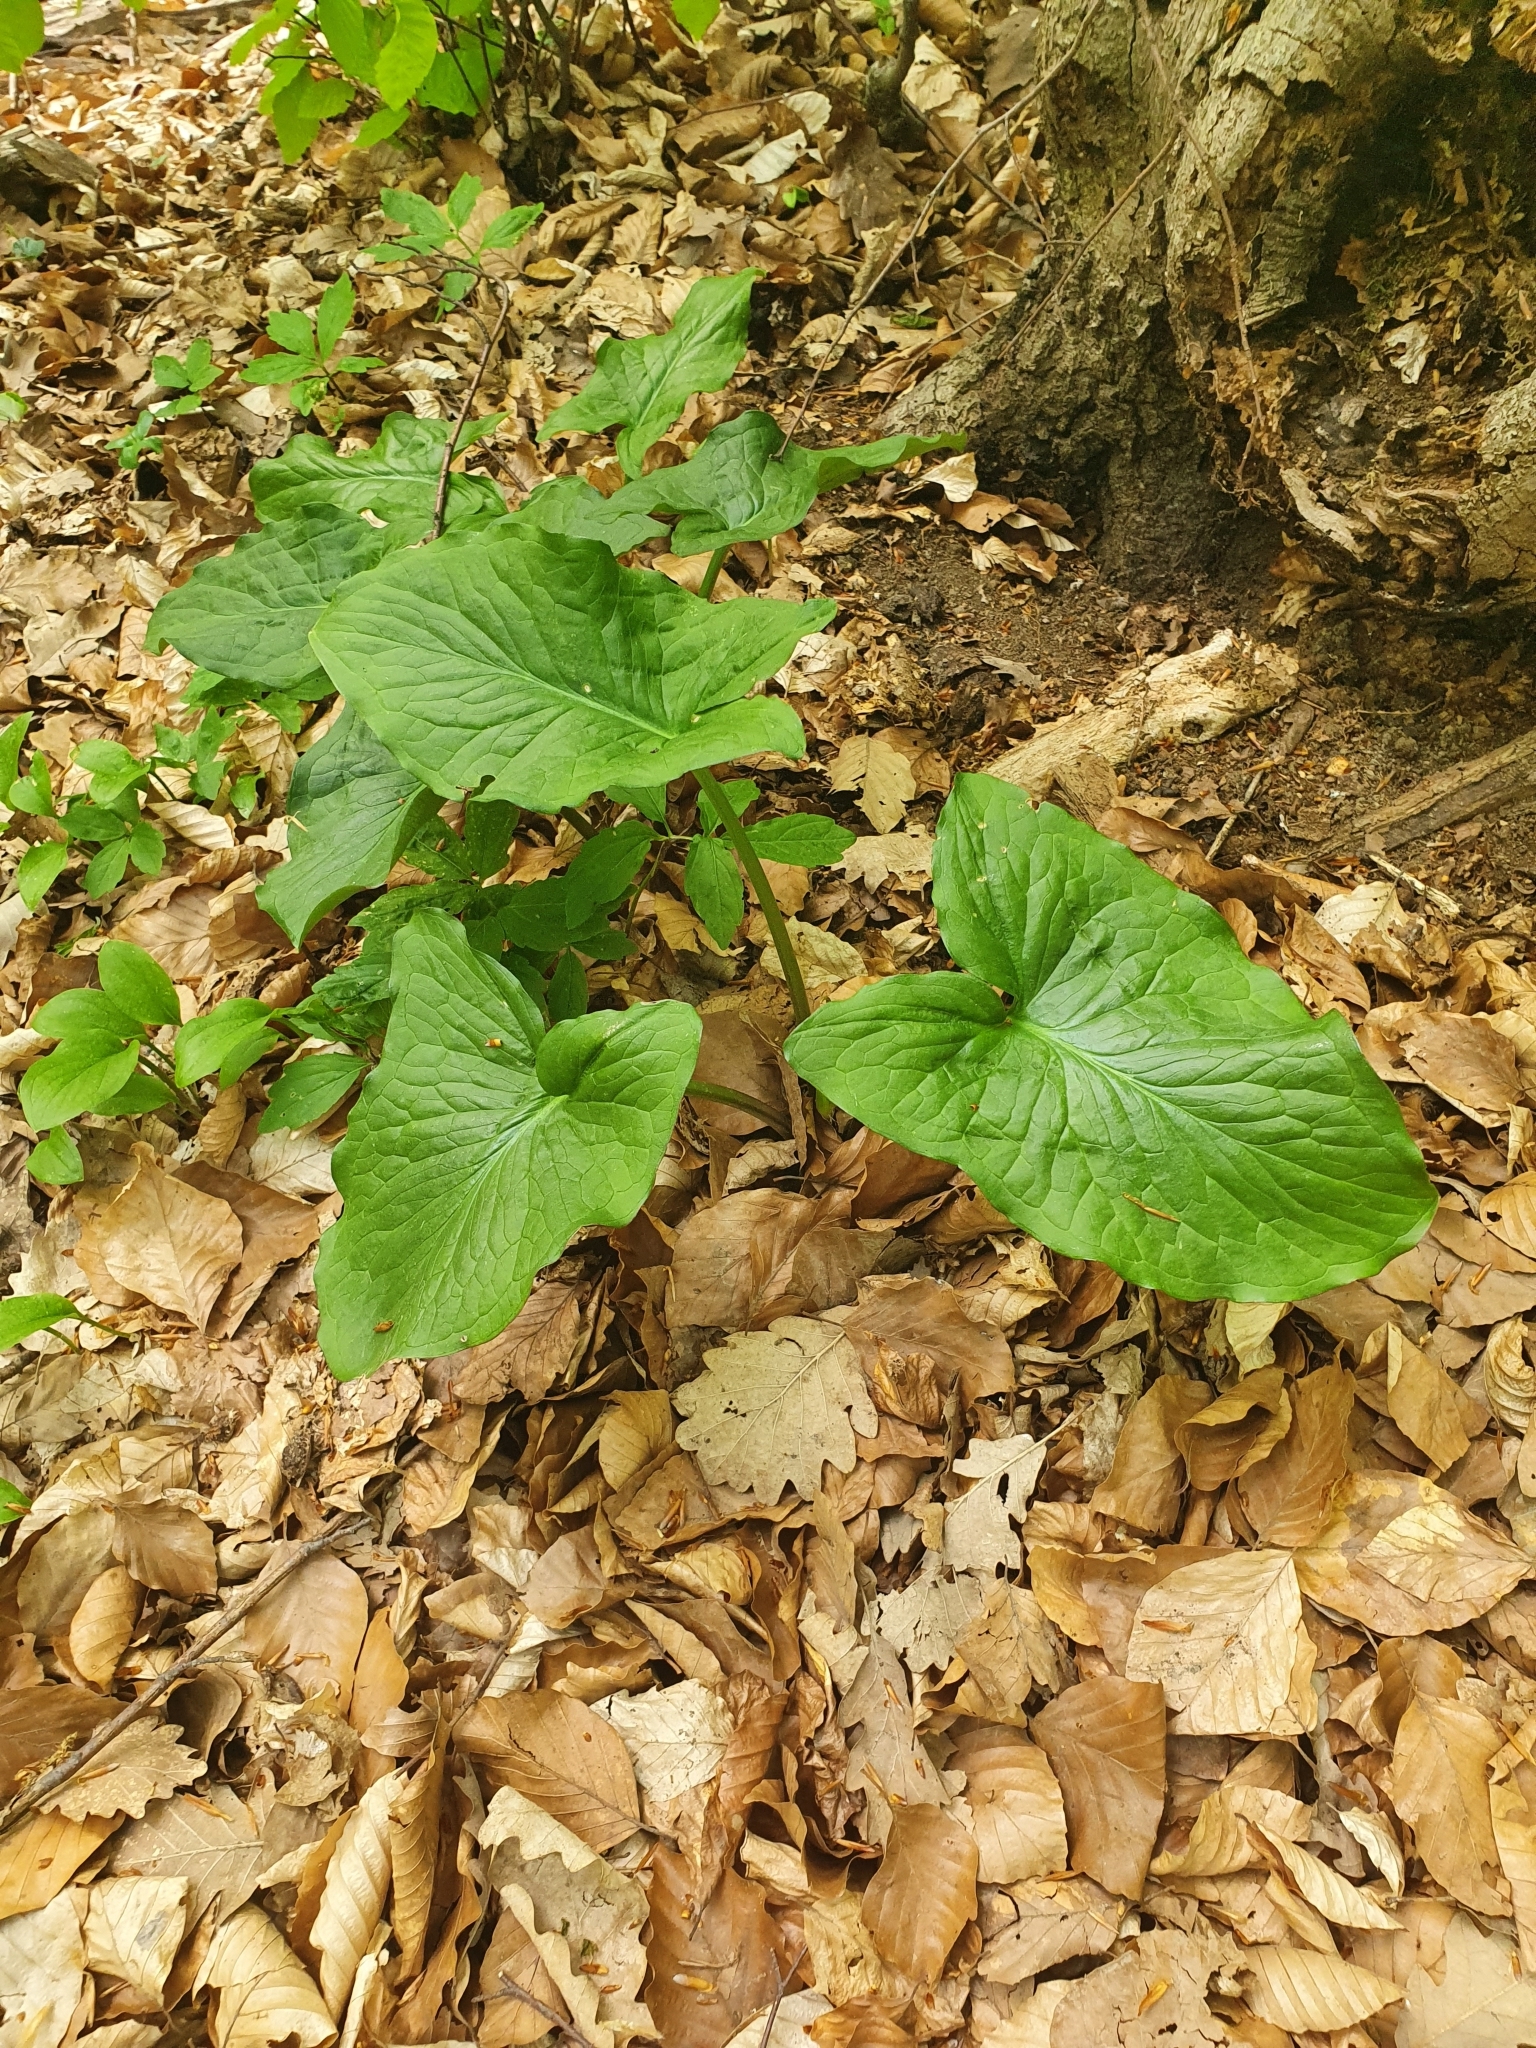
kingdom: Plantae
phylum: Tracheophyta
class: Liliopsida
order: Alismatales
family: Araceae
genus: Arum
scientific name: Arum cylindraceum
